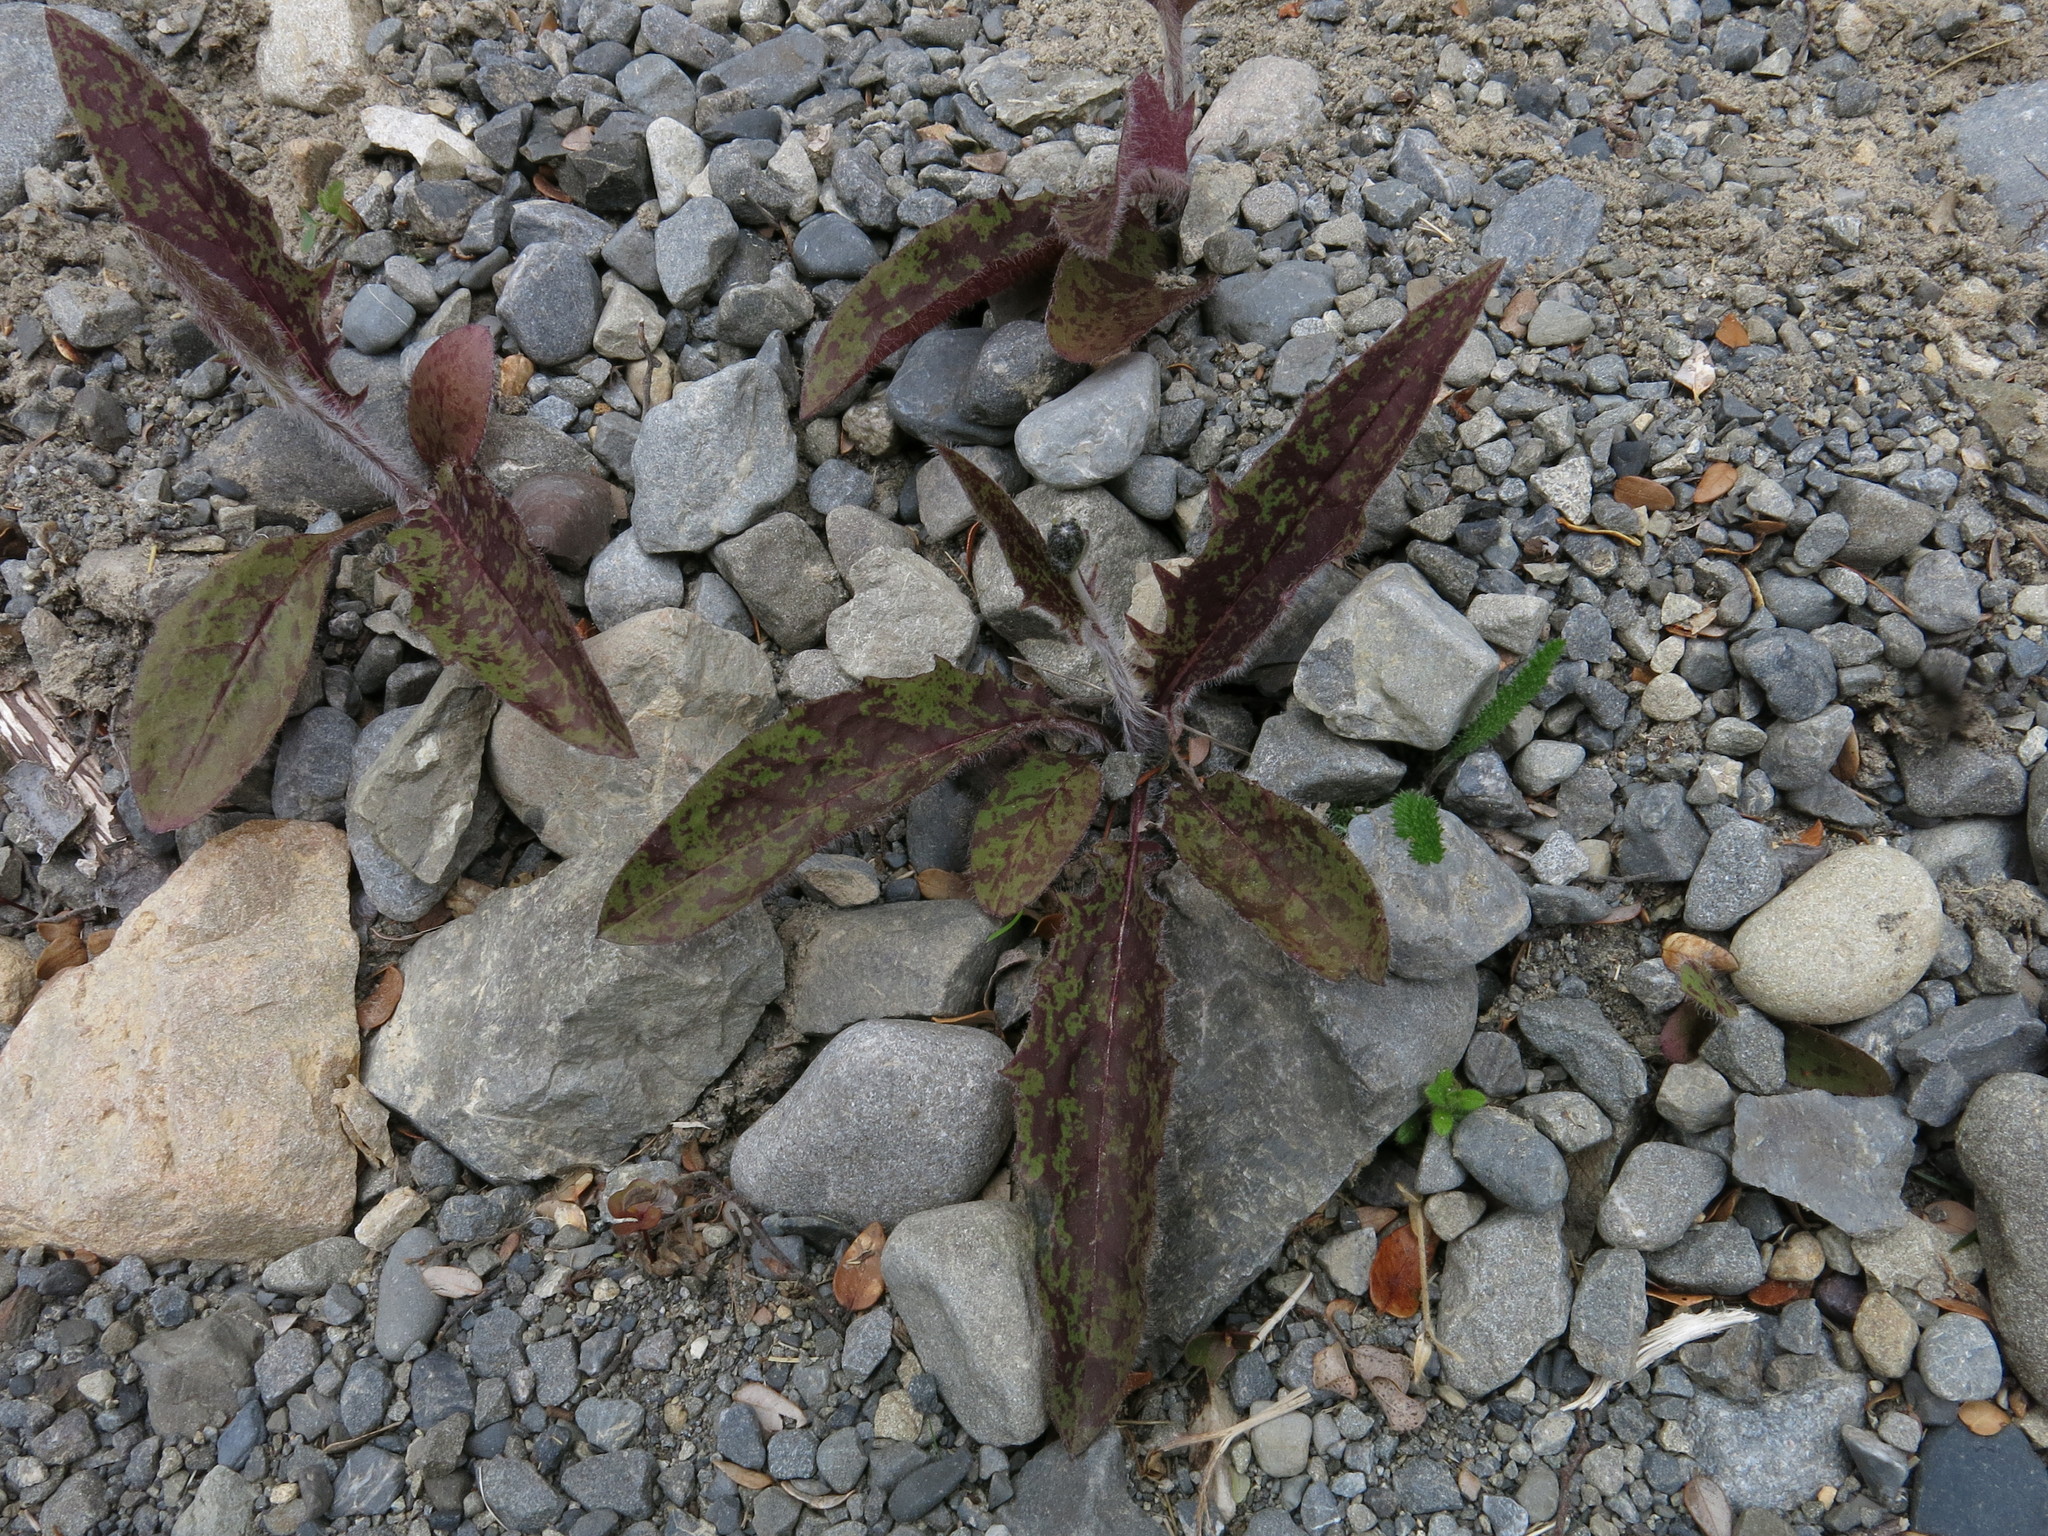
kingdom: Plantae
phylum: Tracheophyta
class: Magnoliopsida
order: Asterales
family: Asteraceae
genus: Hieracium
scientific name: Hieracium maculatum
